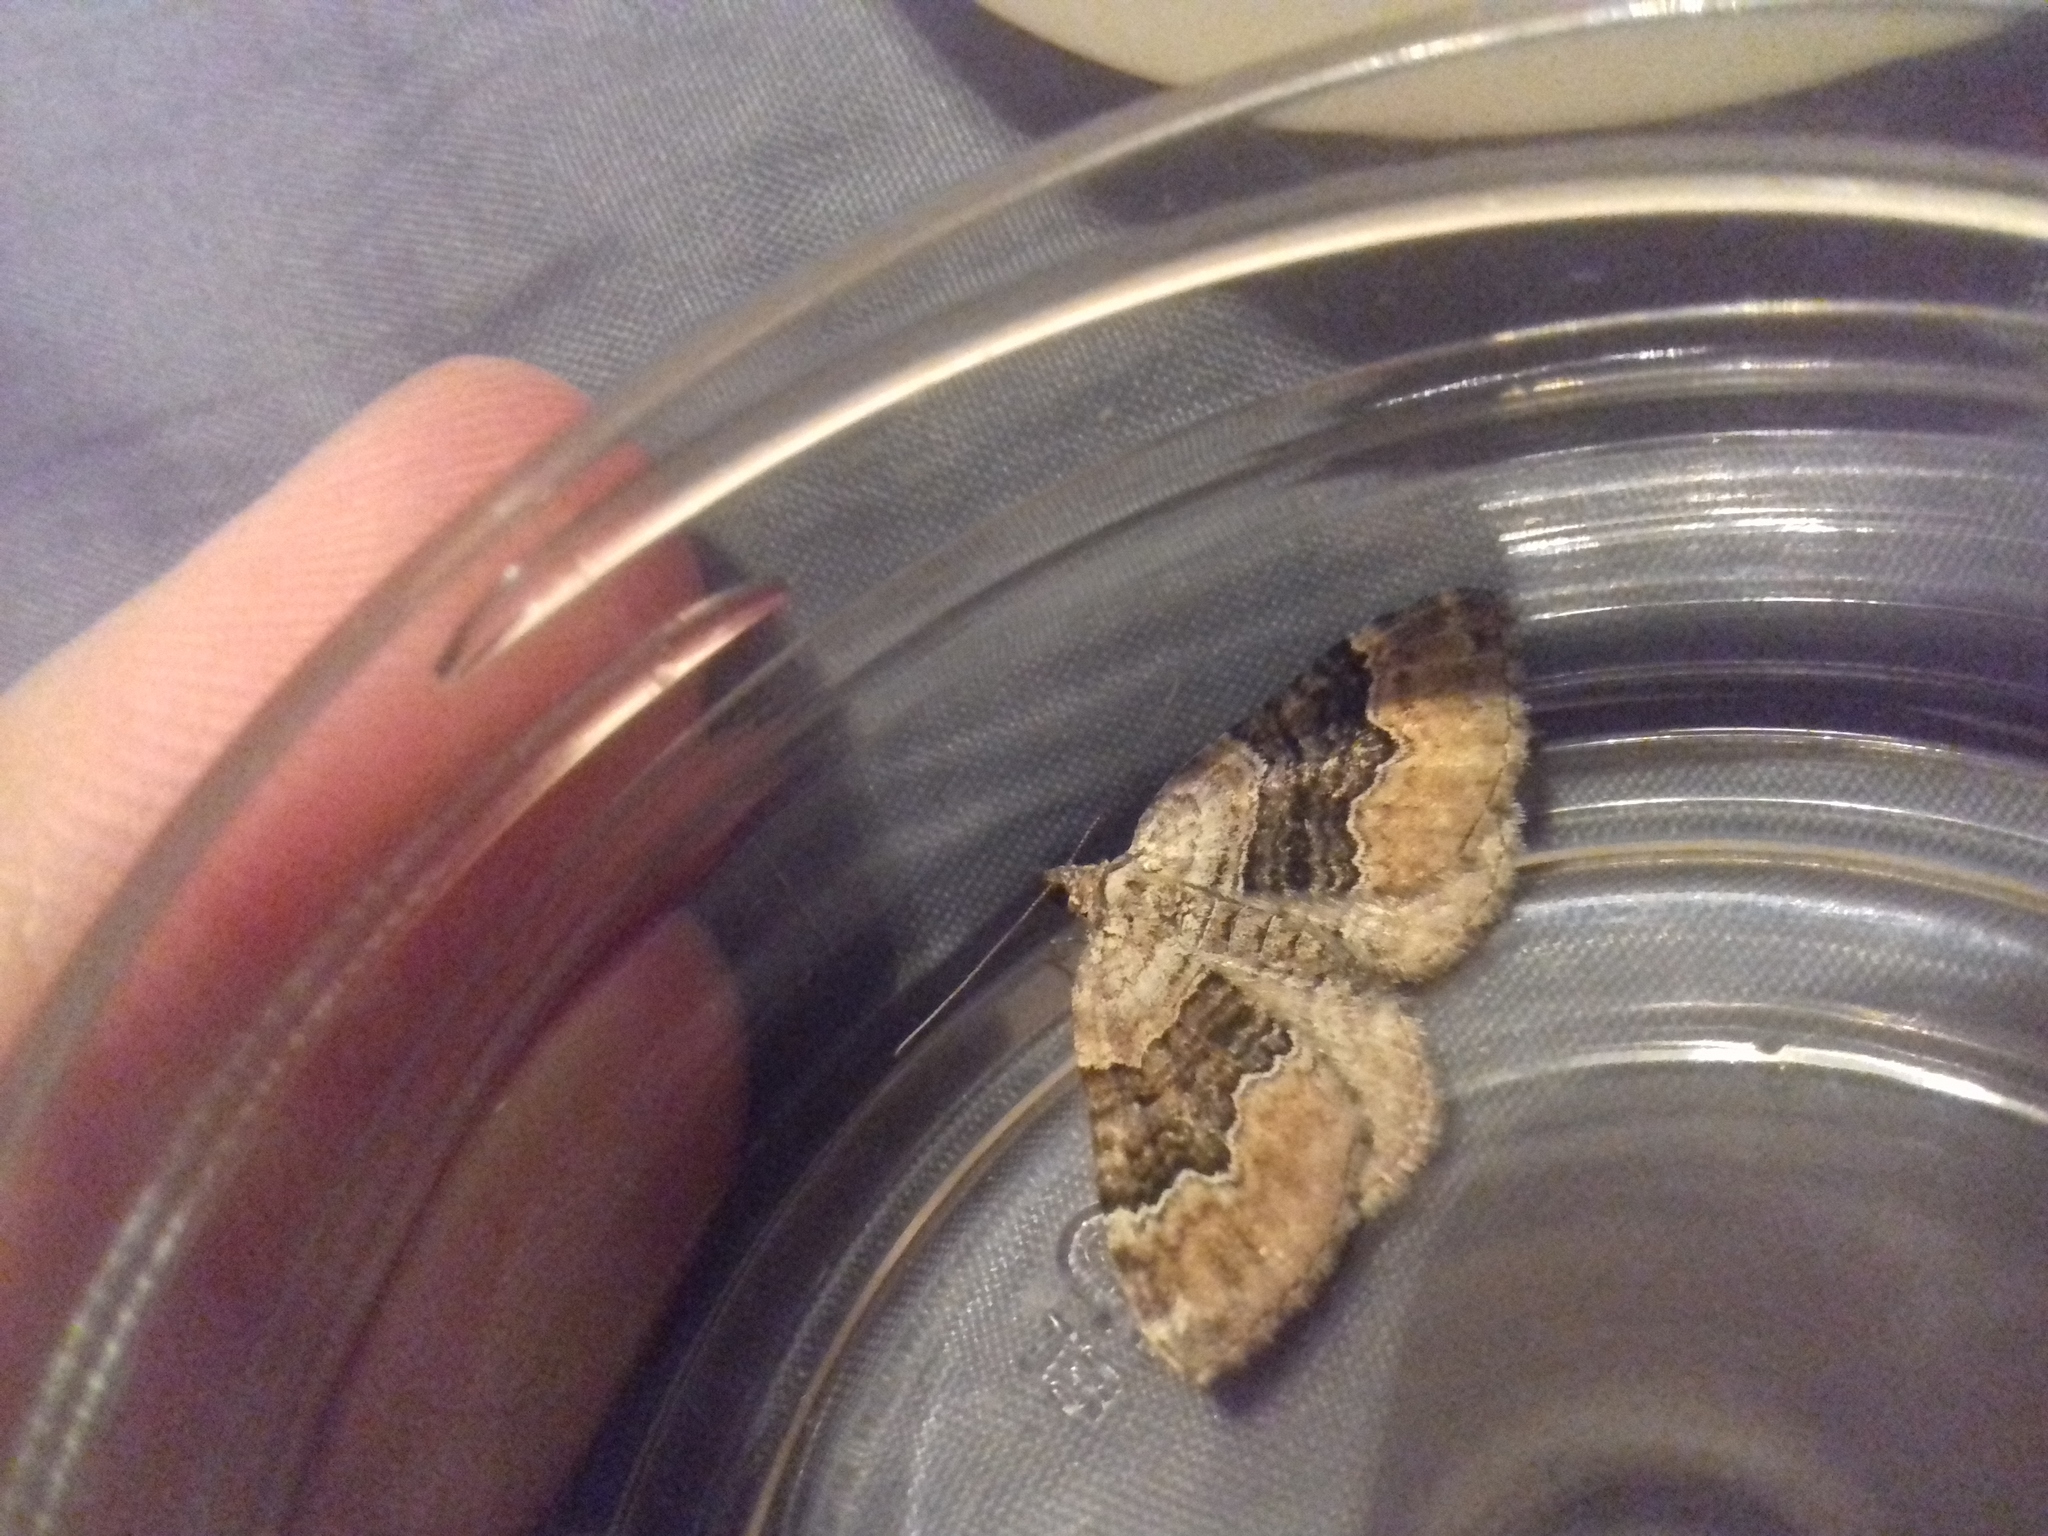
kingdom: Animalia
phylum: Arthropoda
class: Insecta
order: Lepidoptera
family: Geometridae
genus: Xanthorhoe
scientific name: Xanthorhoe quadrifasiata
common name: Large twin-spot carpet
